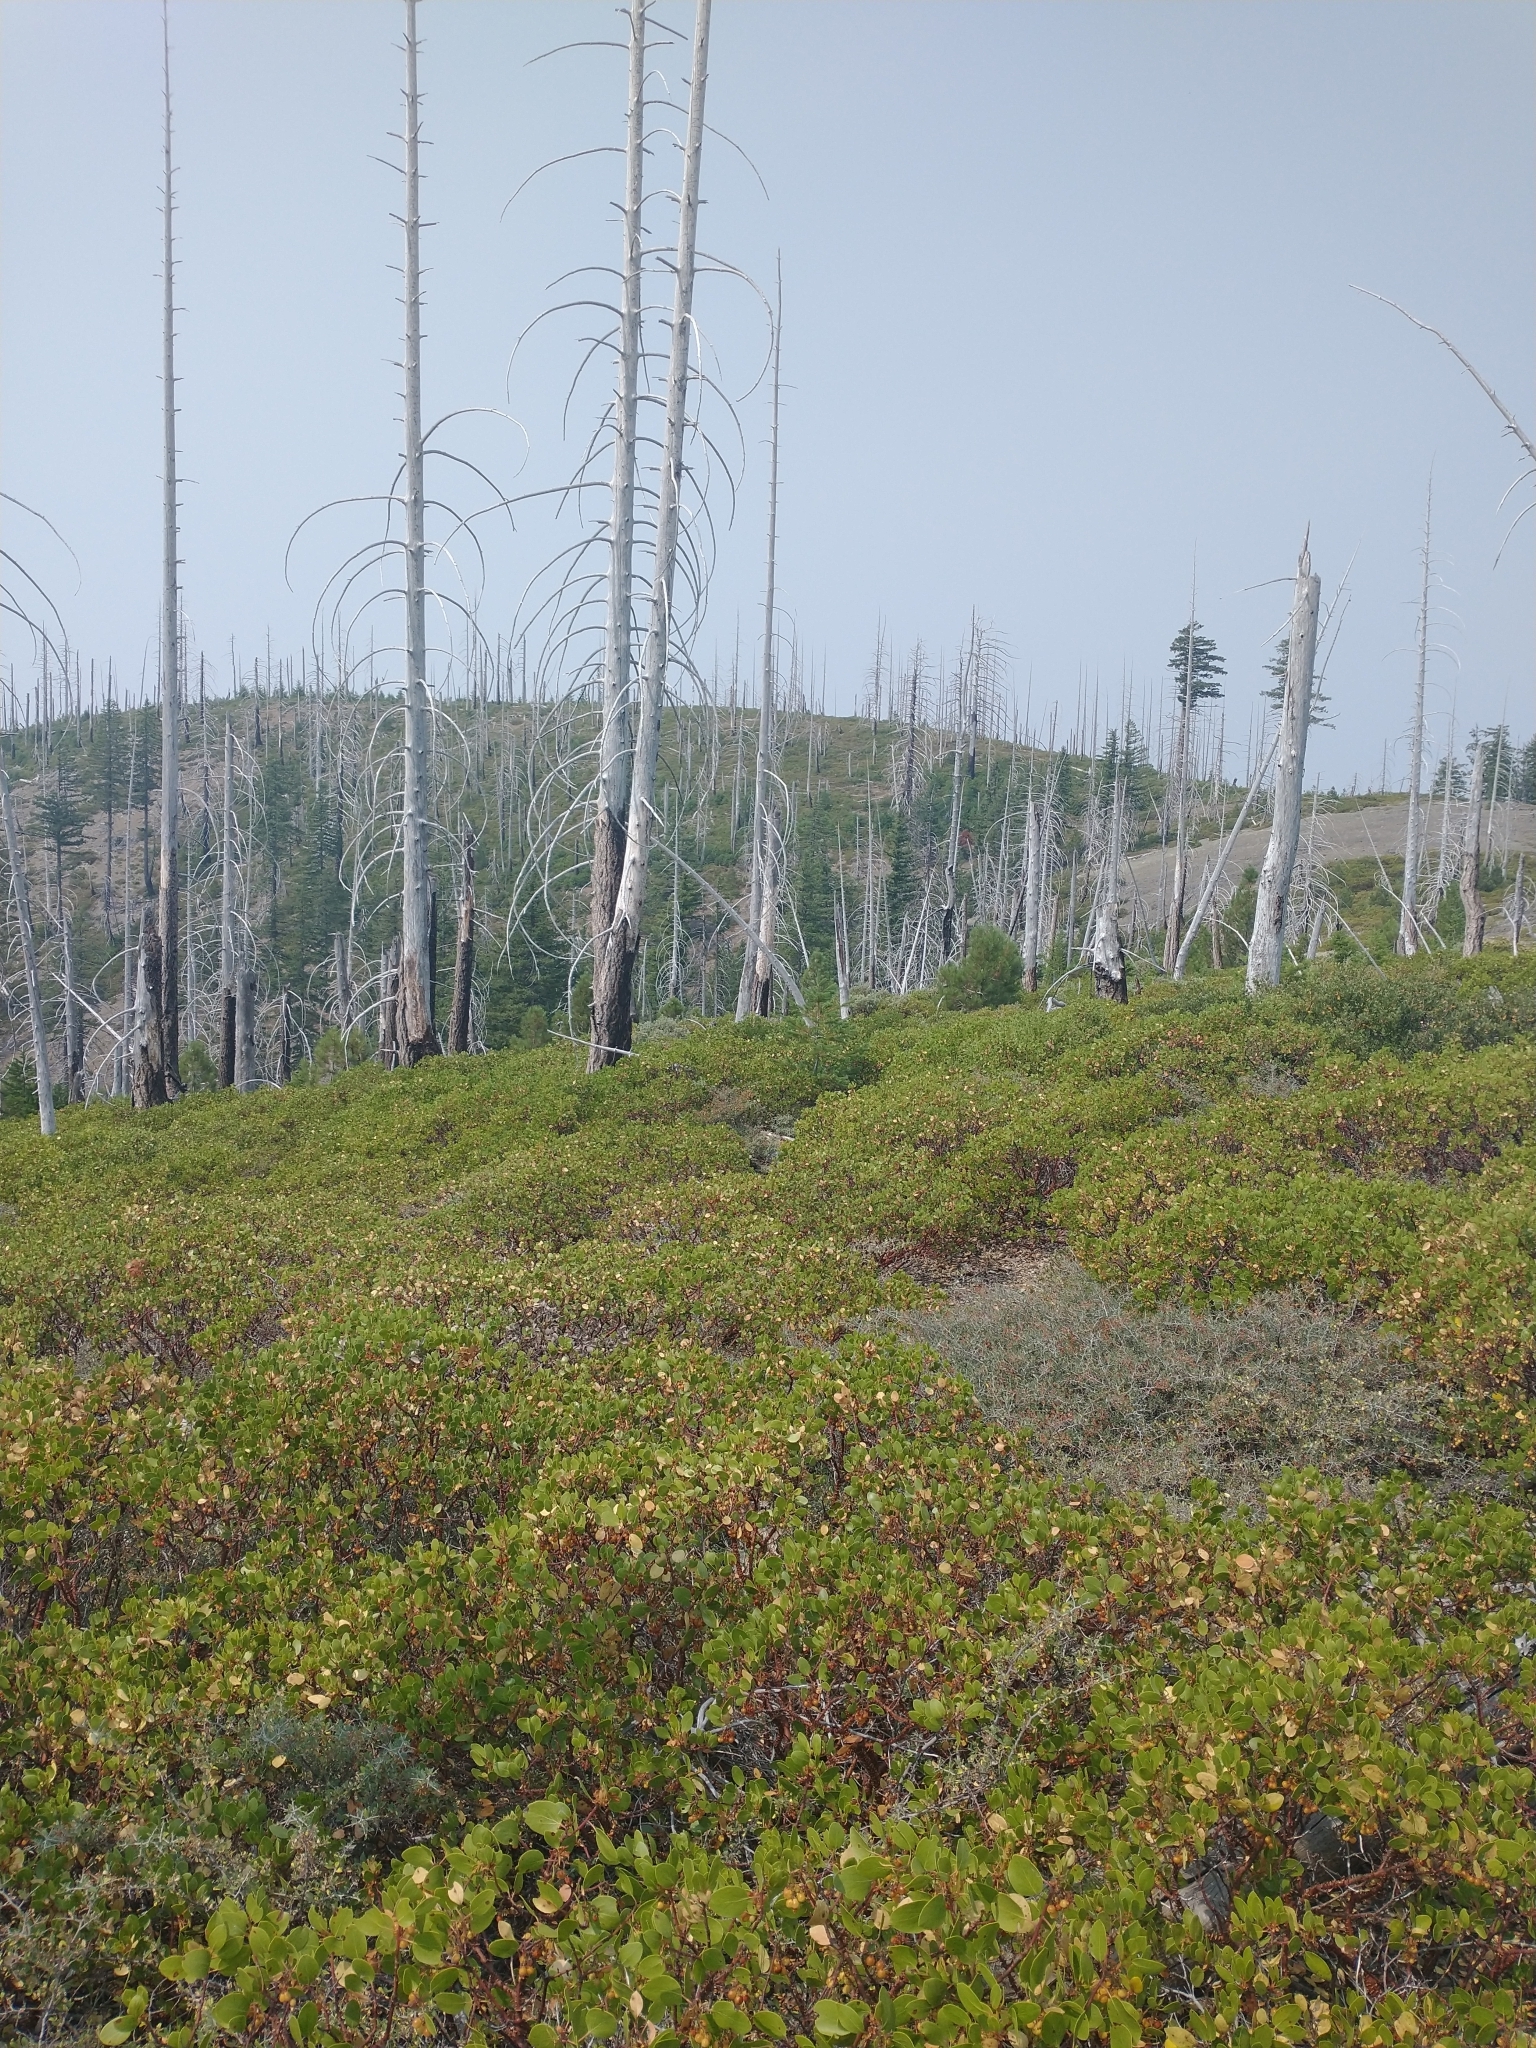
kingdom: Plantae
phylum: Tracheophyta
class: Magnoliopsida
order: Rosales
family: Rhamnaceae
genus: Ceanothus
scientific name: Ceanothus cordulatus
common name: Mountain whitethorn
